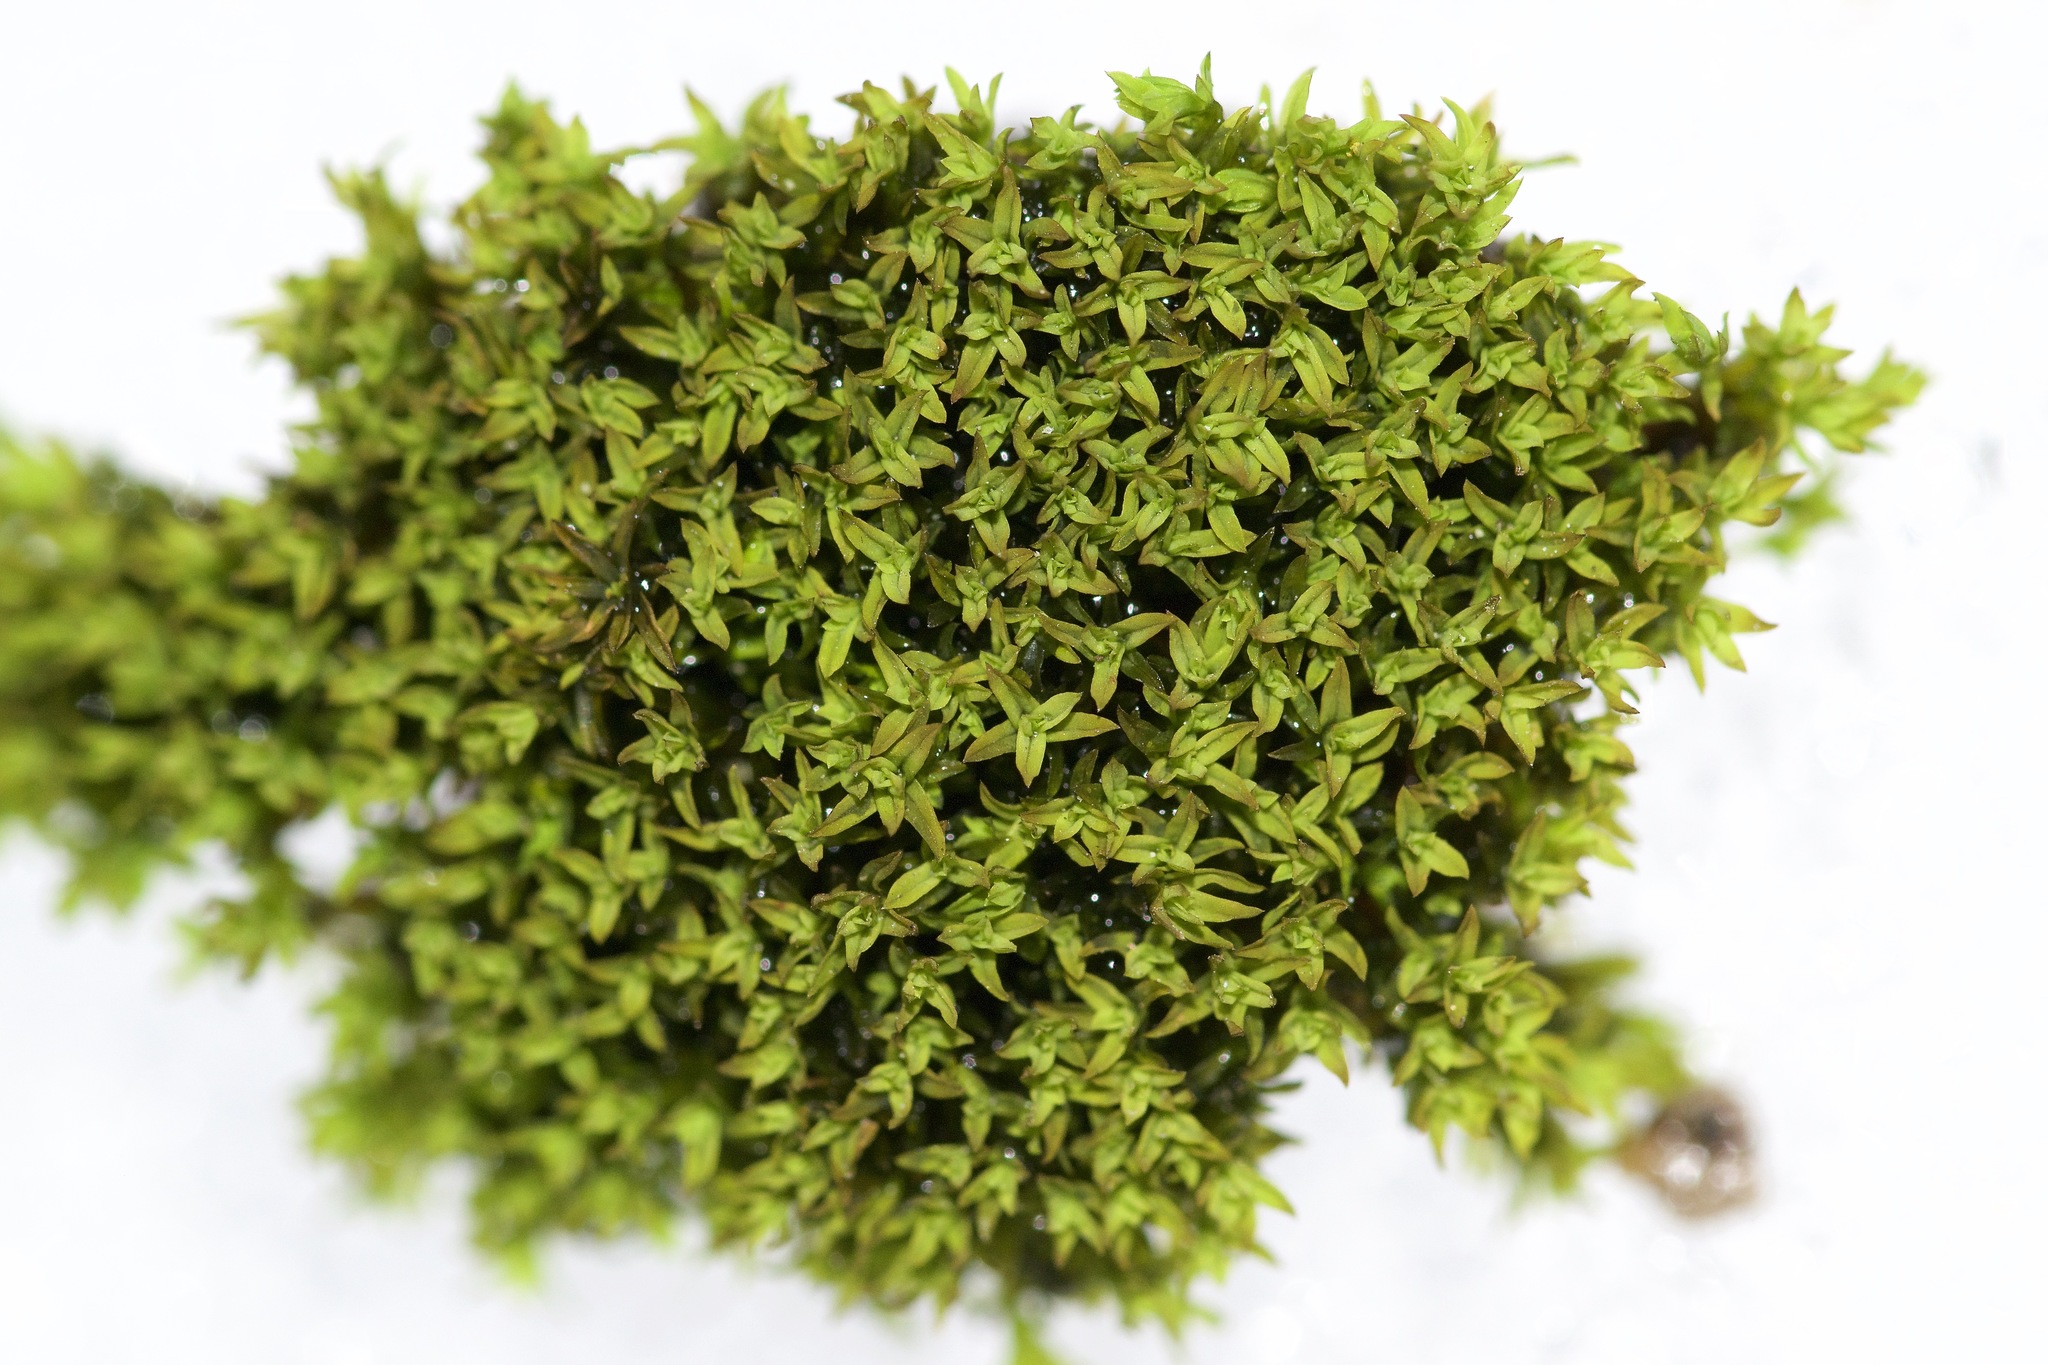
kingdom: Plantae
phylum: Bryophyta
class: Bryopsida
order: Pottiales
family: Pottiaceae
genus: Barbula
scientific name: Barbula unguiculata
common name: Prickly beard moss
